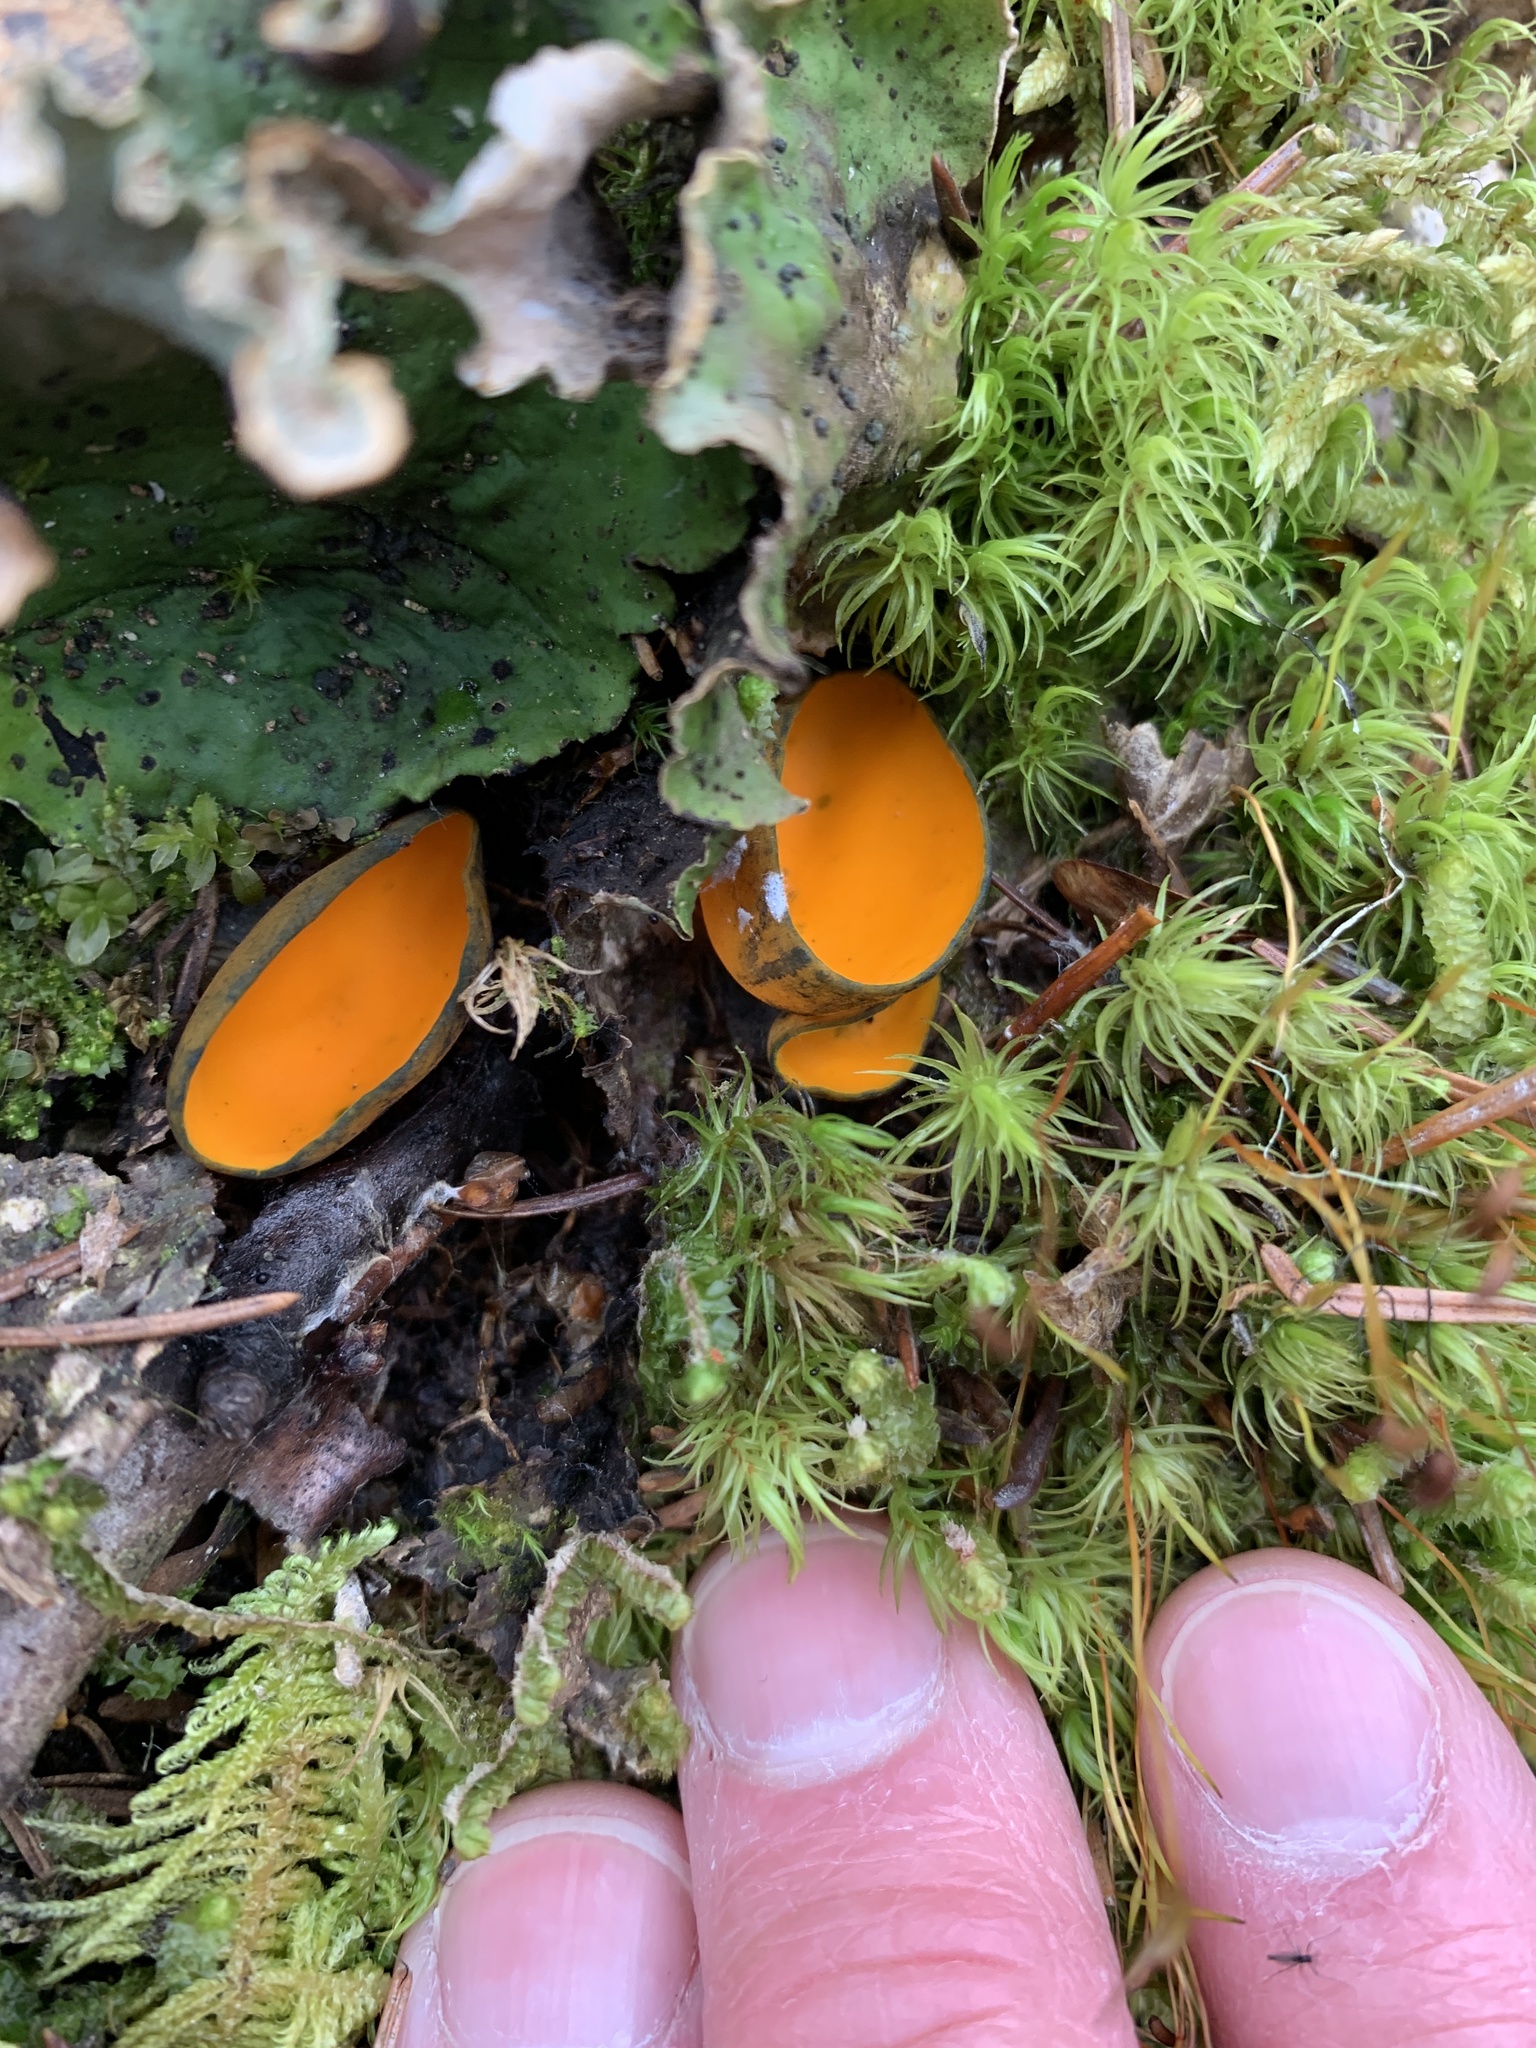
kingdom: Fungi
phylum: Ascomycota
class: Pezizomycetes
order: Pezizales
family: Caloscyphaceae
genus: Caloscypha
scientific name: Caloscypha fulgens
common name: Golden cup
